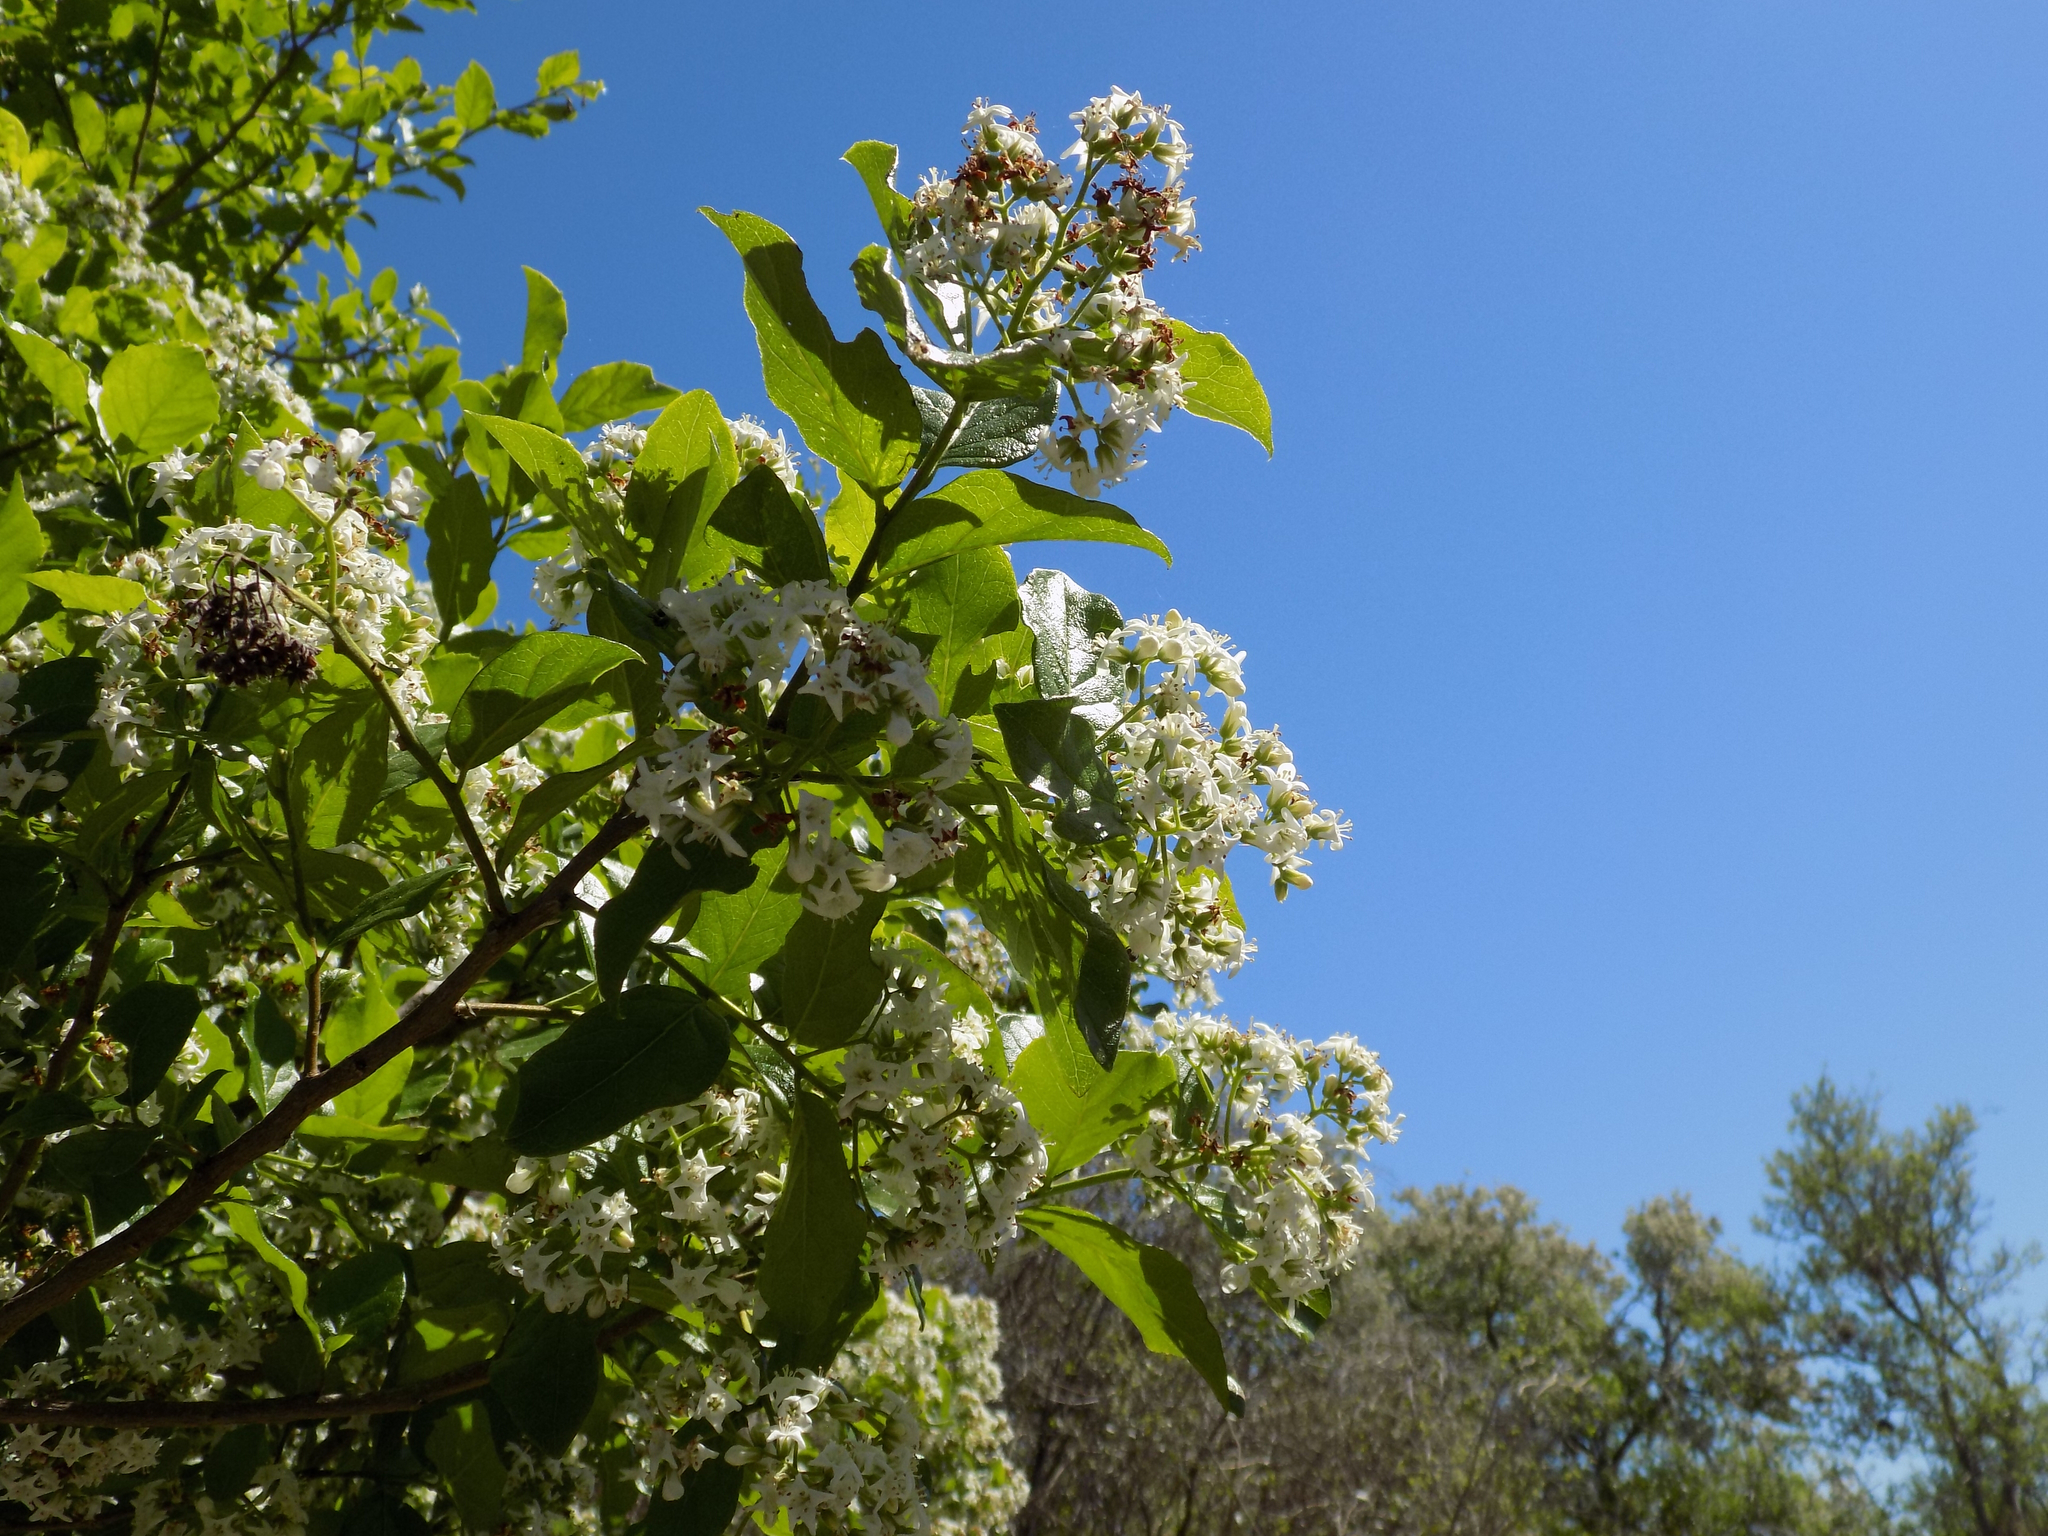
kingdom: Plantae
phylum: Tracheophyta
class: Magnoliopsida
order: Boraginales
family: Ehretiaceae
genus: Ehretia
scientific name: Ehretia anacua
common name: Sugarberry
